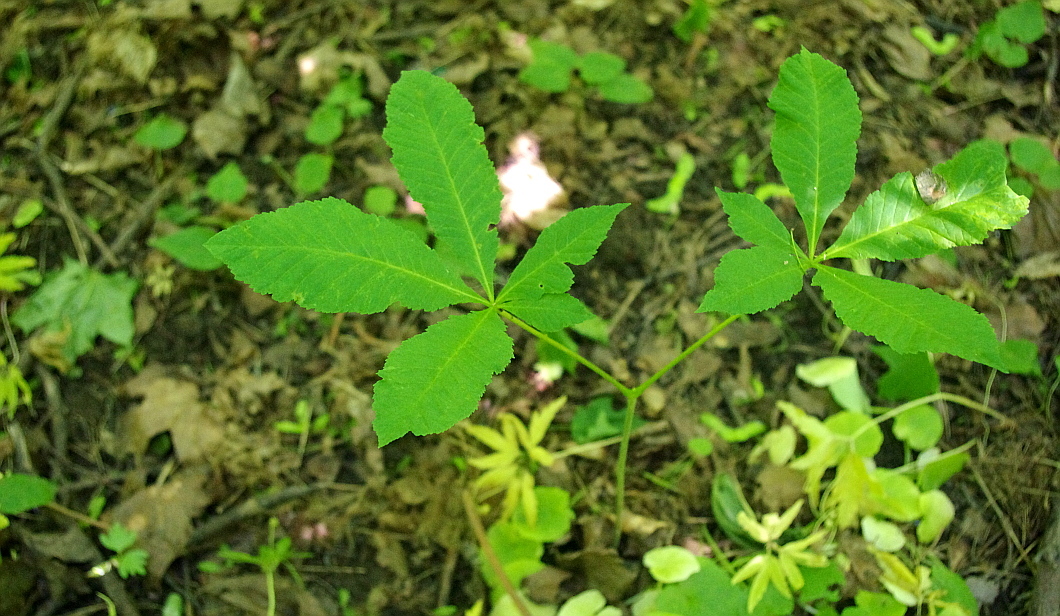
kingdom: Plantae
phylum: Tracheophyta
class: Magnoliopsida
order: Sapindales
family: Sapindaceae
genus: Aesculus
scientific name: Aesculus hippocastanum
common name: Horse-chestnut
